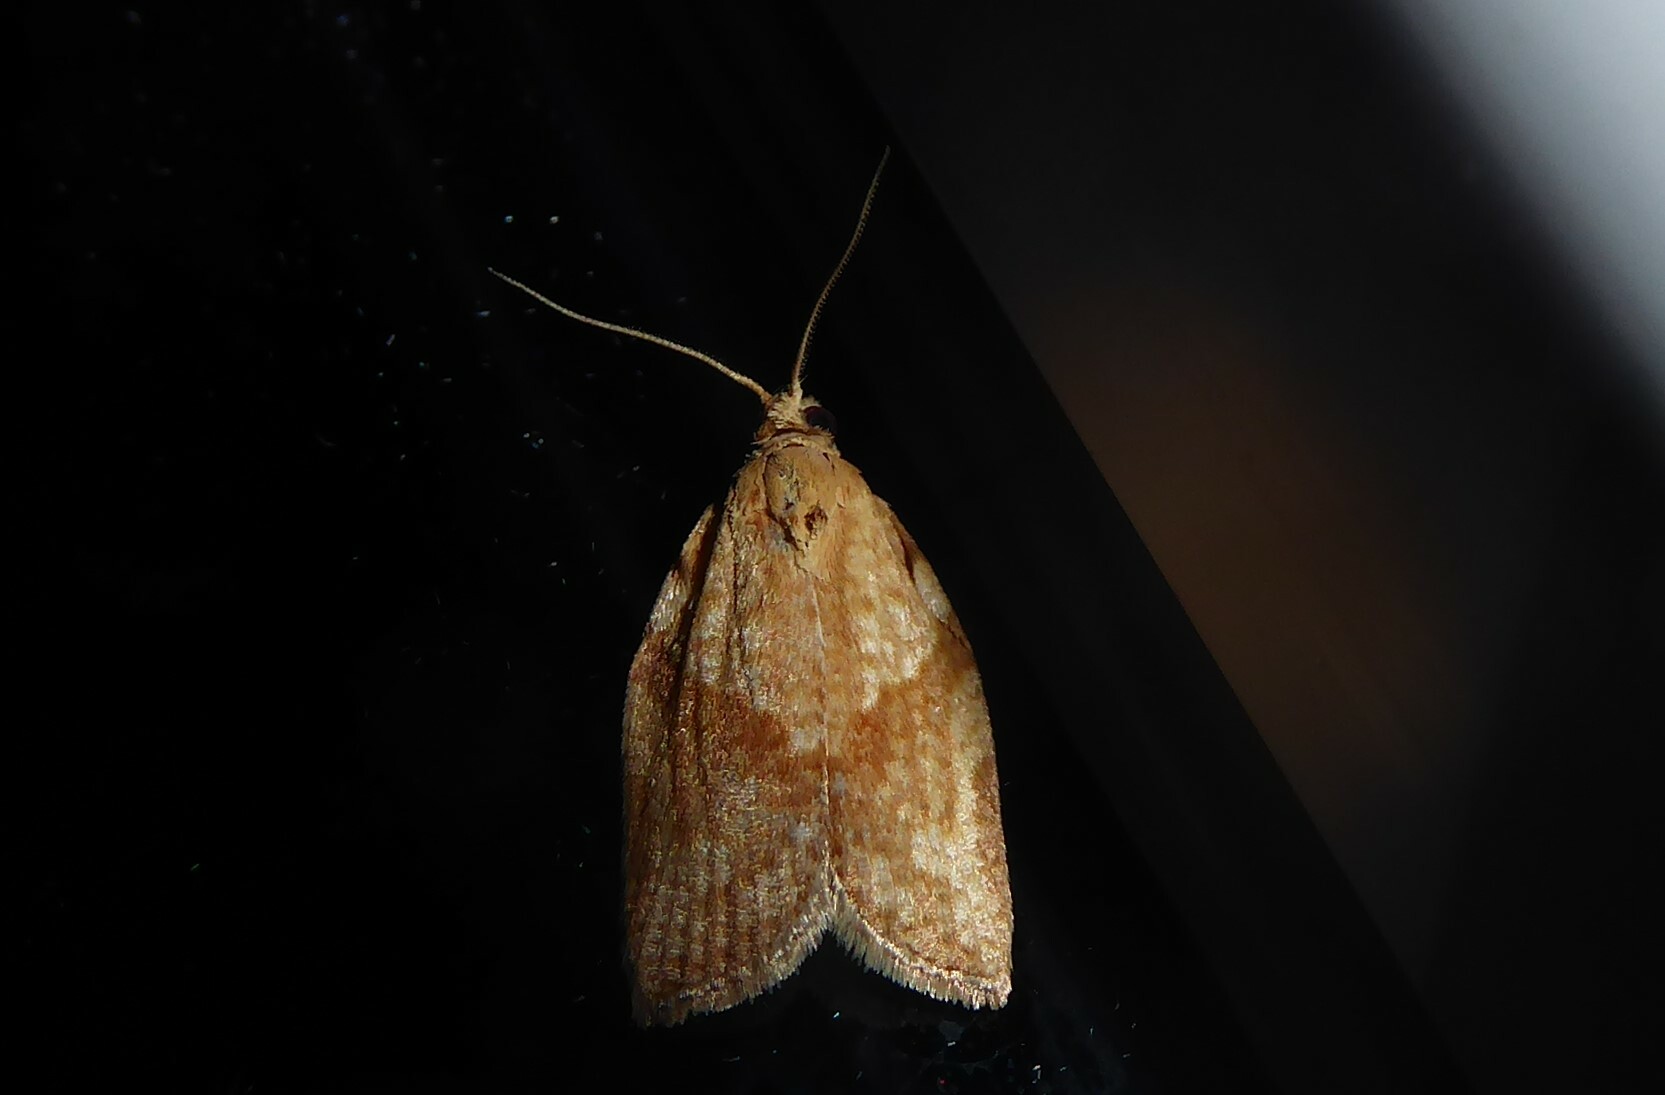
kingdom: Animalia
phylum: Arthropoda
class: Insecta
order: Lepidoptera
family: Tortricidae
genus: Epiphyas
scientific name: Epiphyas postvittana
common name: Light brown apple moth
